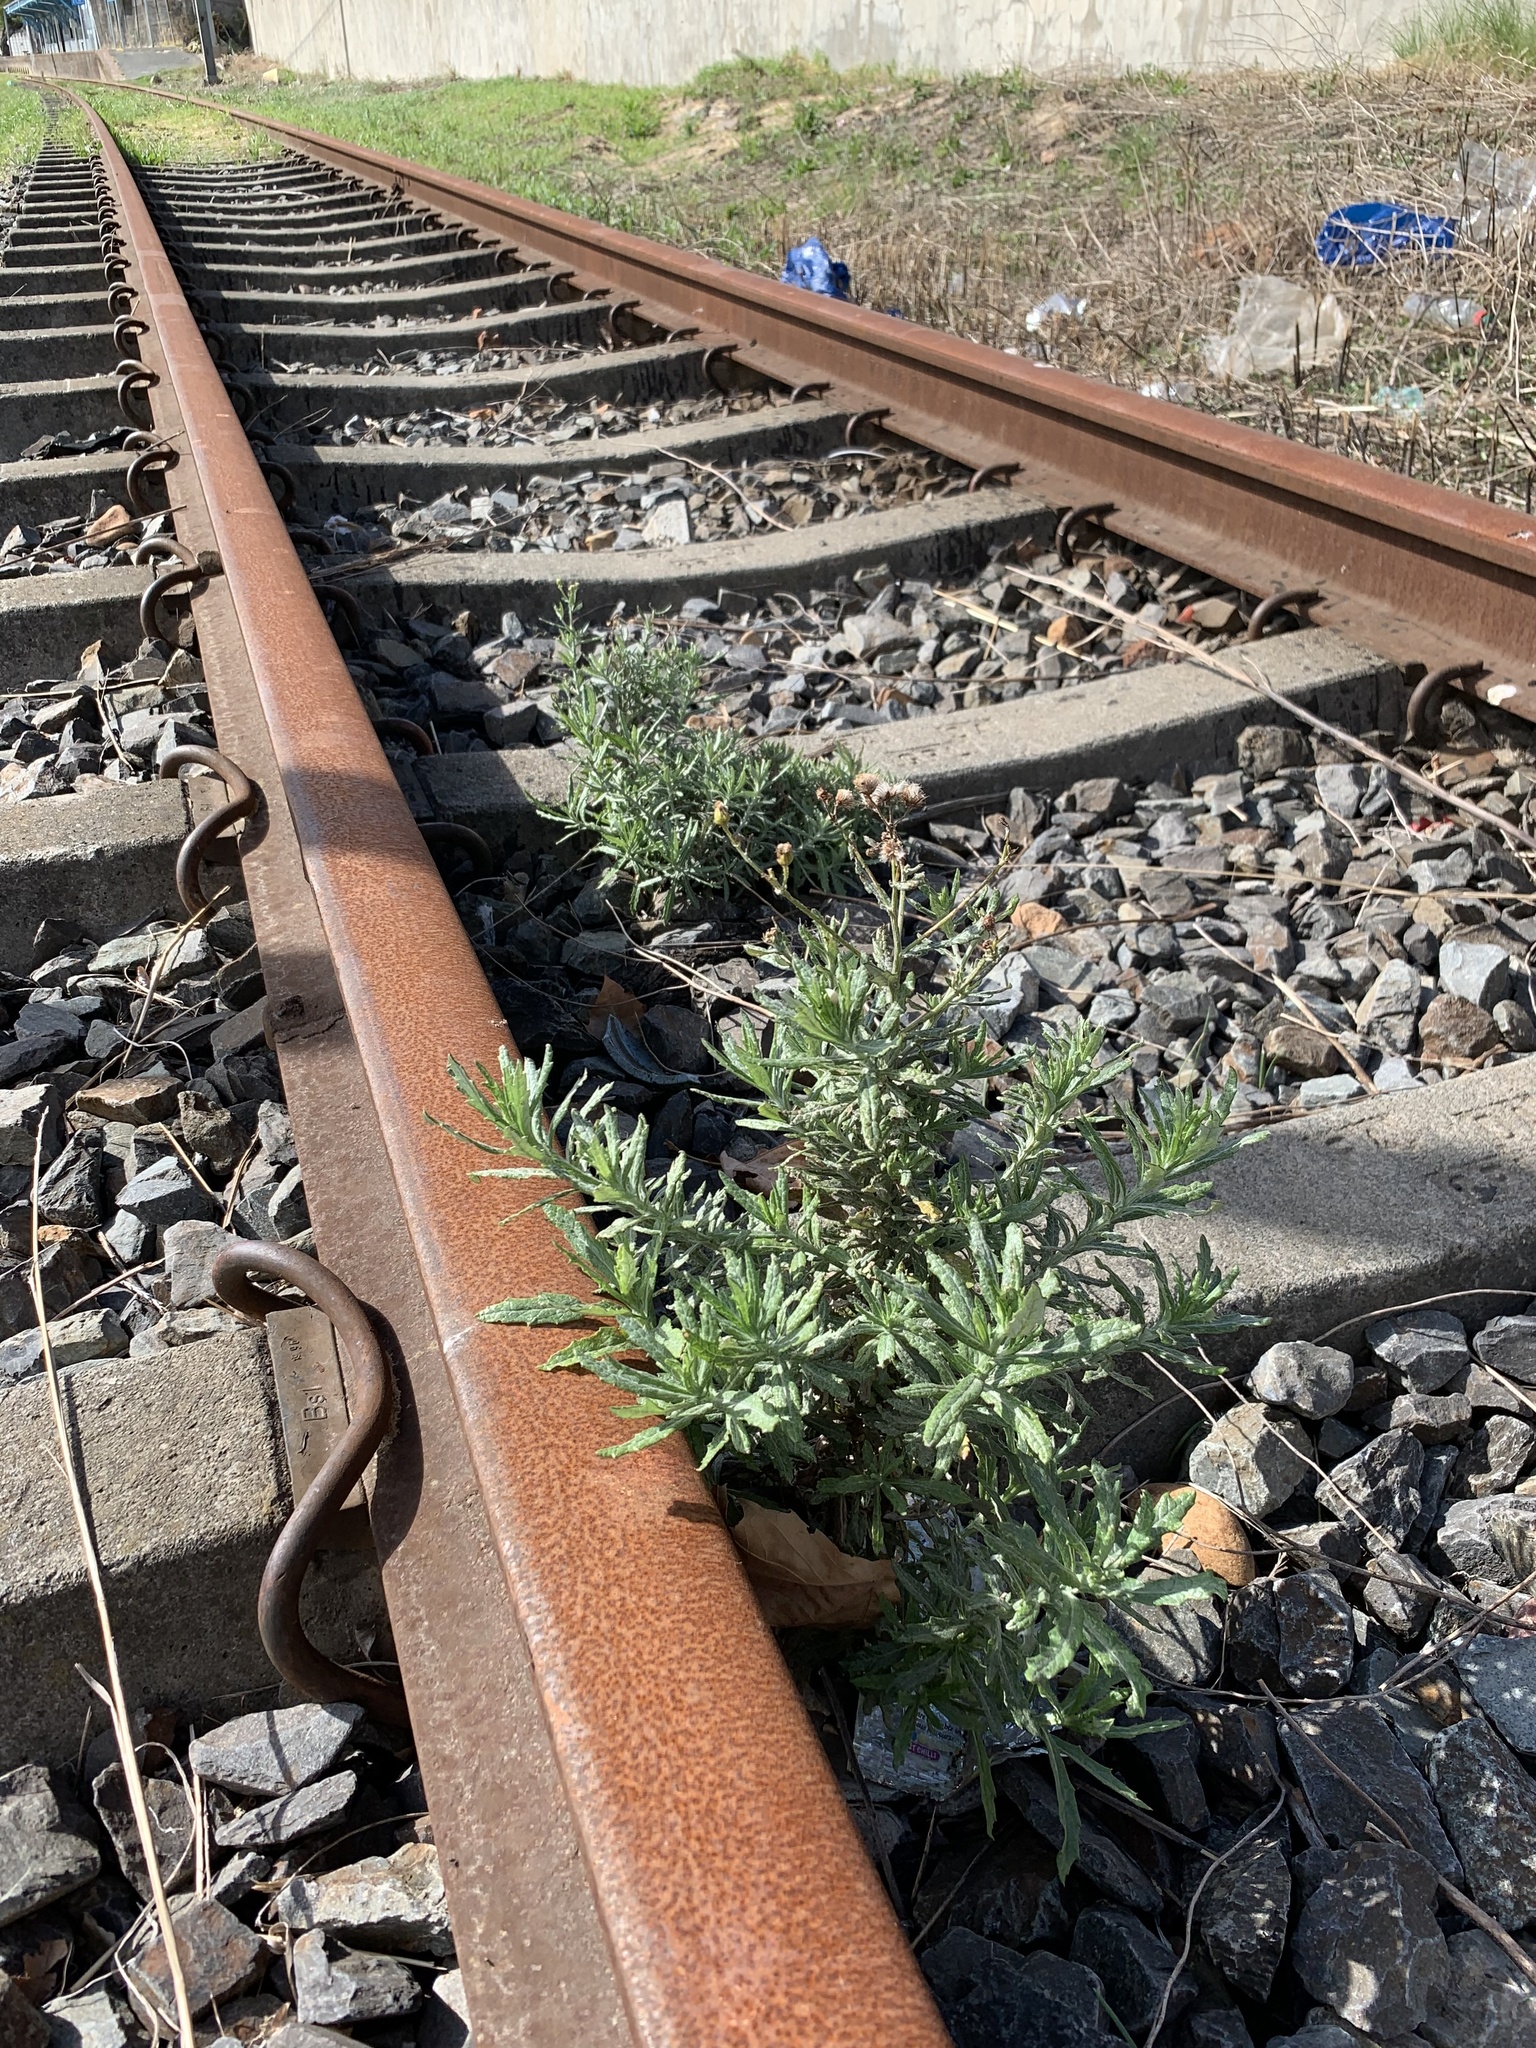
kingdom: Plantae
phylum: Tracheophyta
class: Magnoliopsida
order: Asterales
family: Asteraceae
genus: Senecio
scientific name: Senecio pterophorus
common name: Shoddy ragwort
